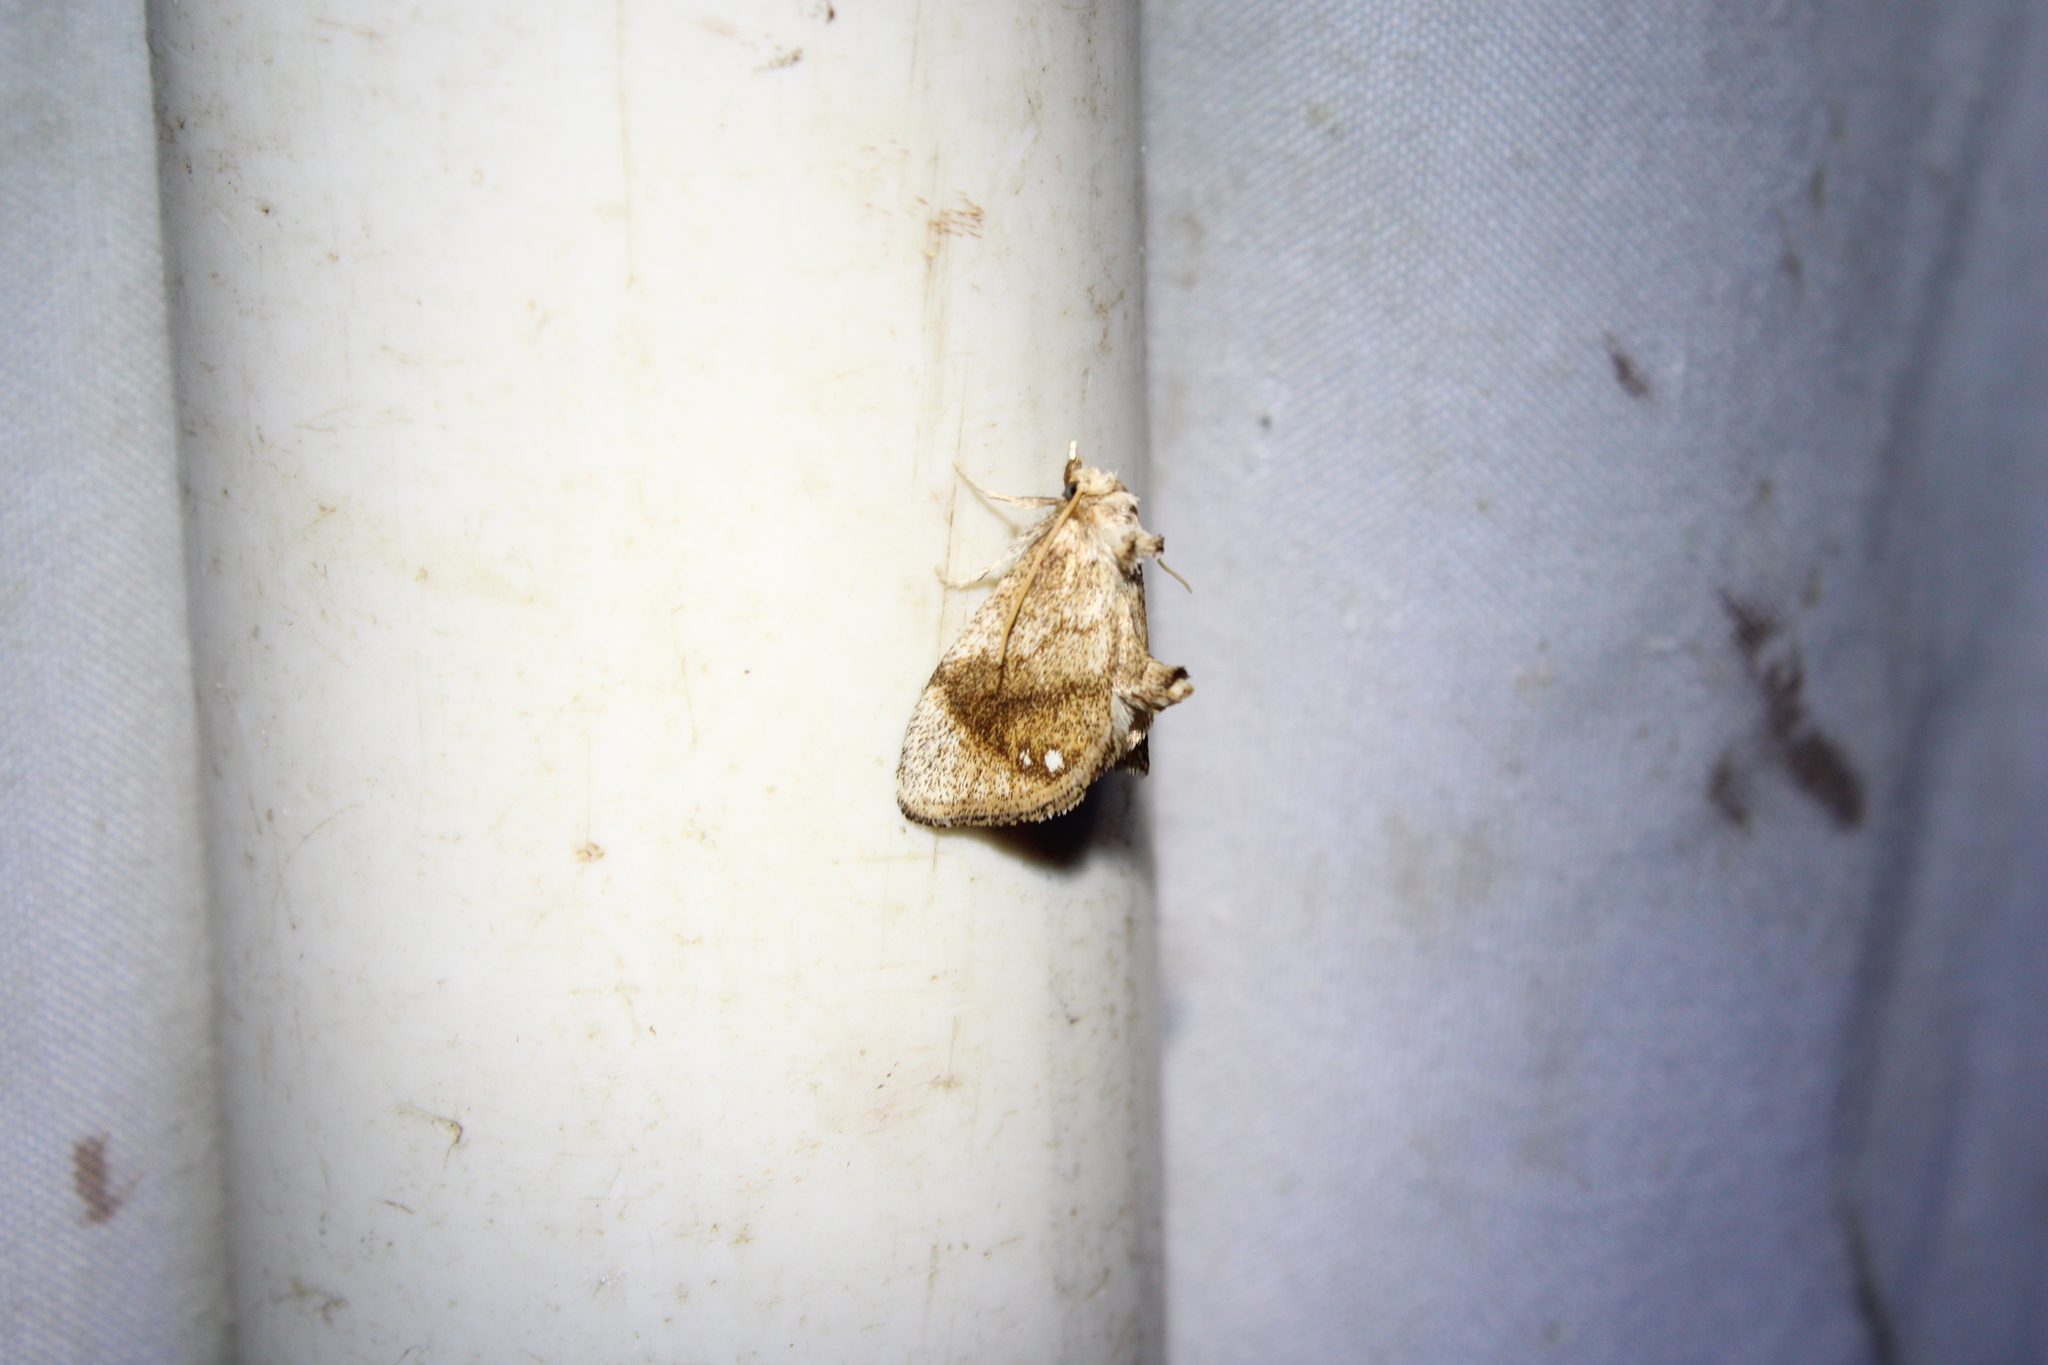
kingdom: Animalia
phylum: Arthropoda
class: Insecta
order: Lepidoptera
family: Limacodidae
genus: Packardia
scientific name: Packardia geminata
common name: Jeweled tailed slug moth
